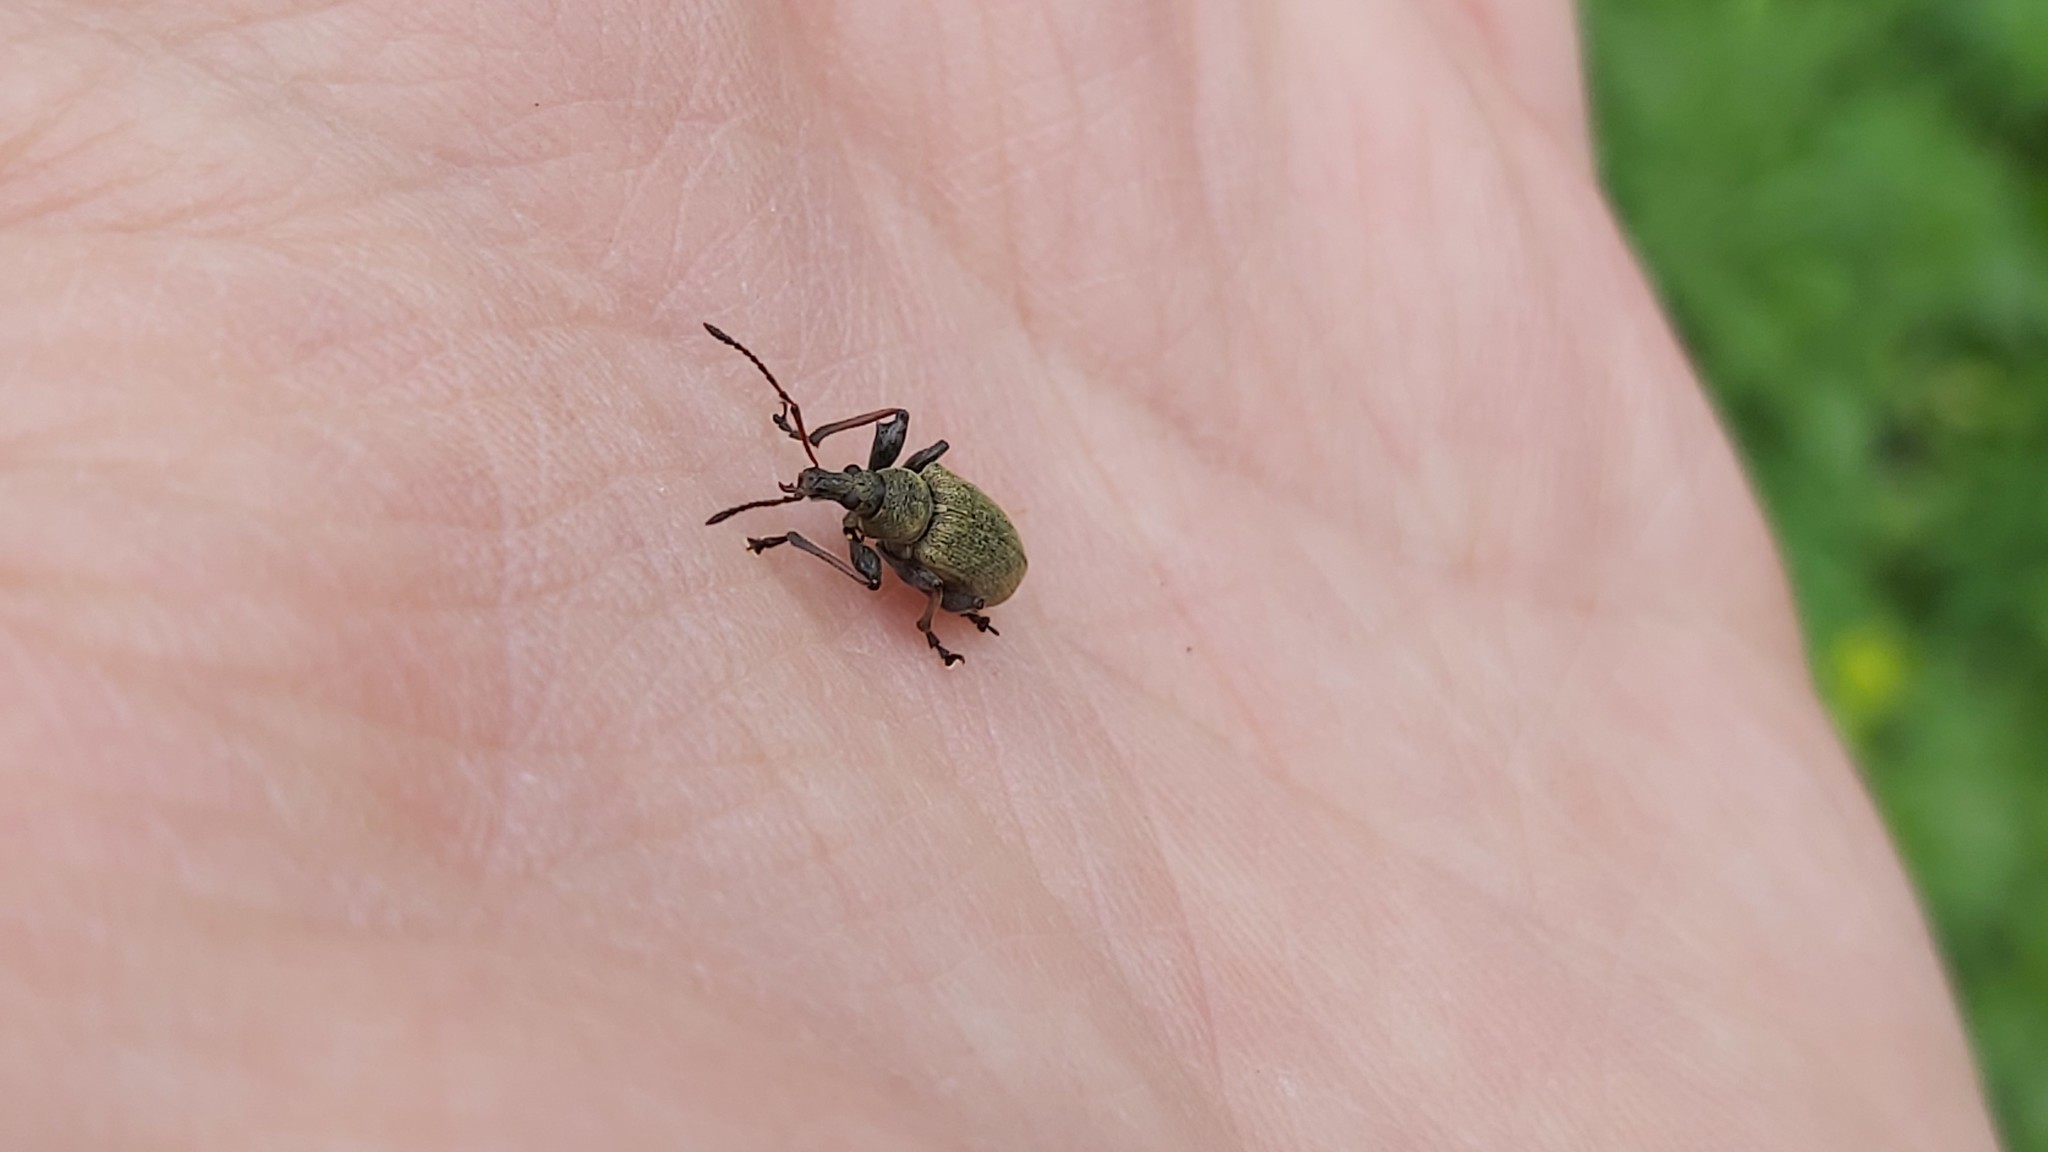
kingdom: Animalia
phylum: Arthropoda
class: Insecta
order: Coleoptera
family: Curculionidae
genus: Phyllobius
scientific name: Phyllobius glaucus
